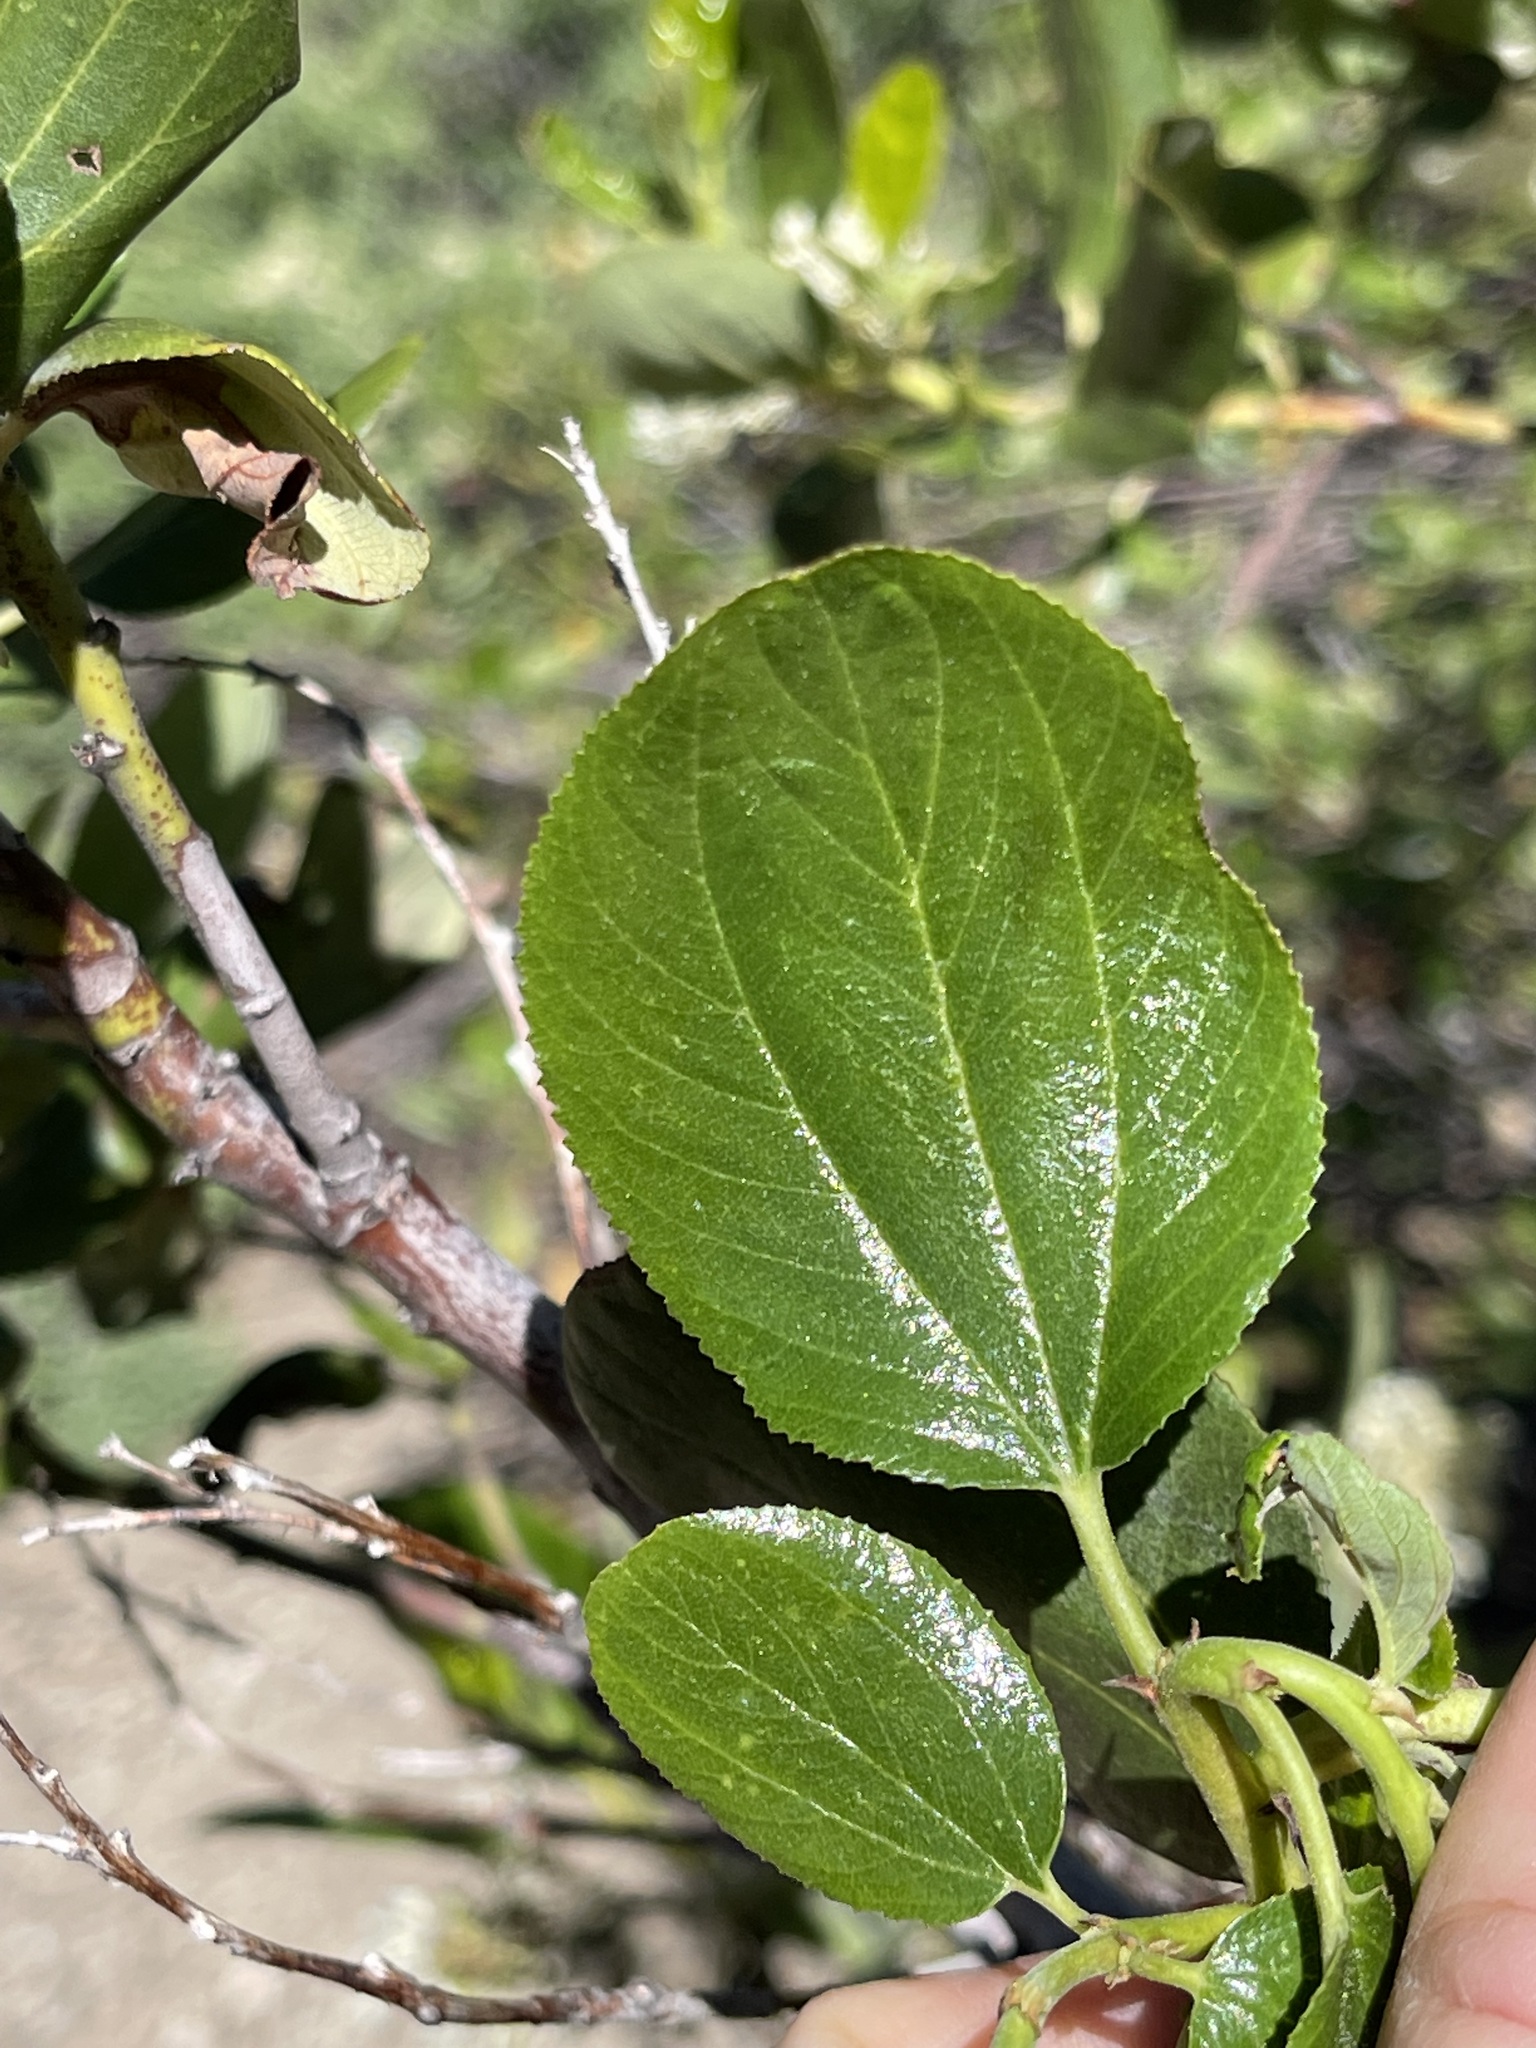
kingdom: Plantae
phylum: Tracheophyta
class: Magnoliopsida
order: Rosales
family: Rhamnaceae
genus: Ceanothus
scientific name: Ceanothus velutinus
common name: Snowbrush
